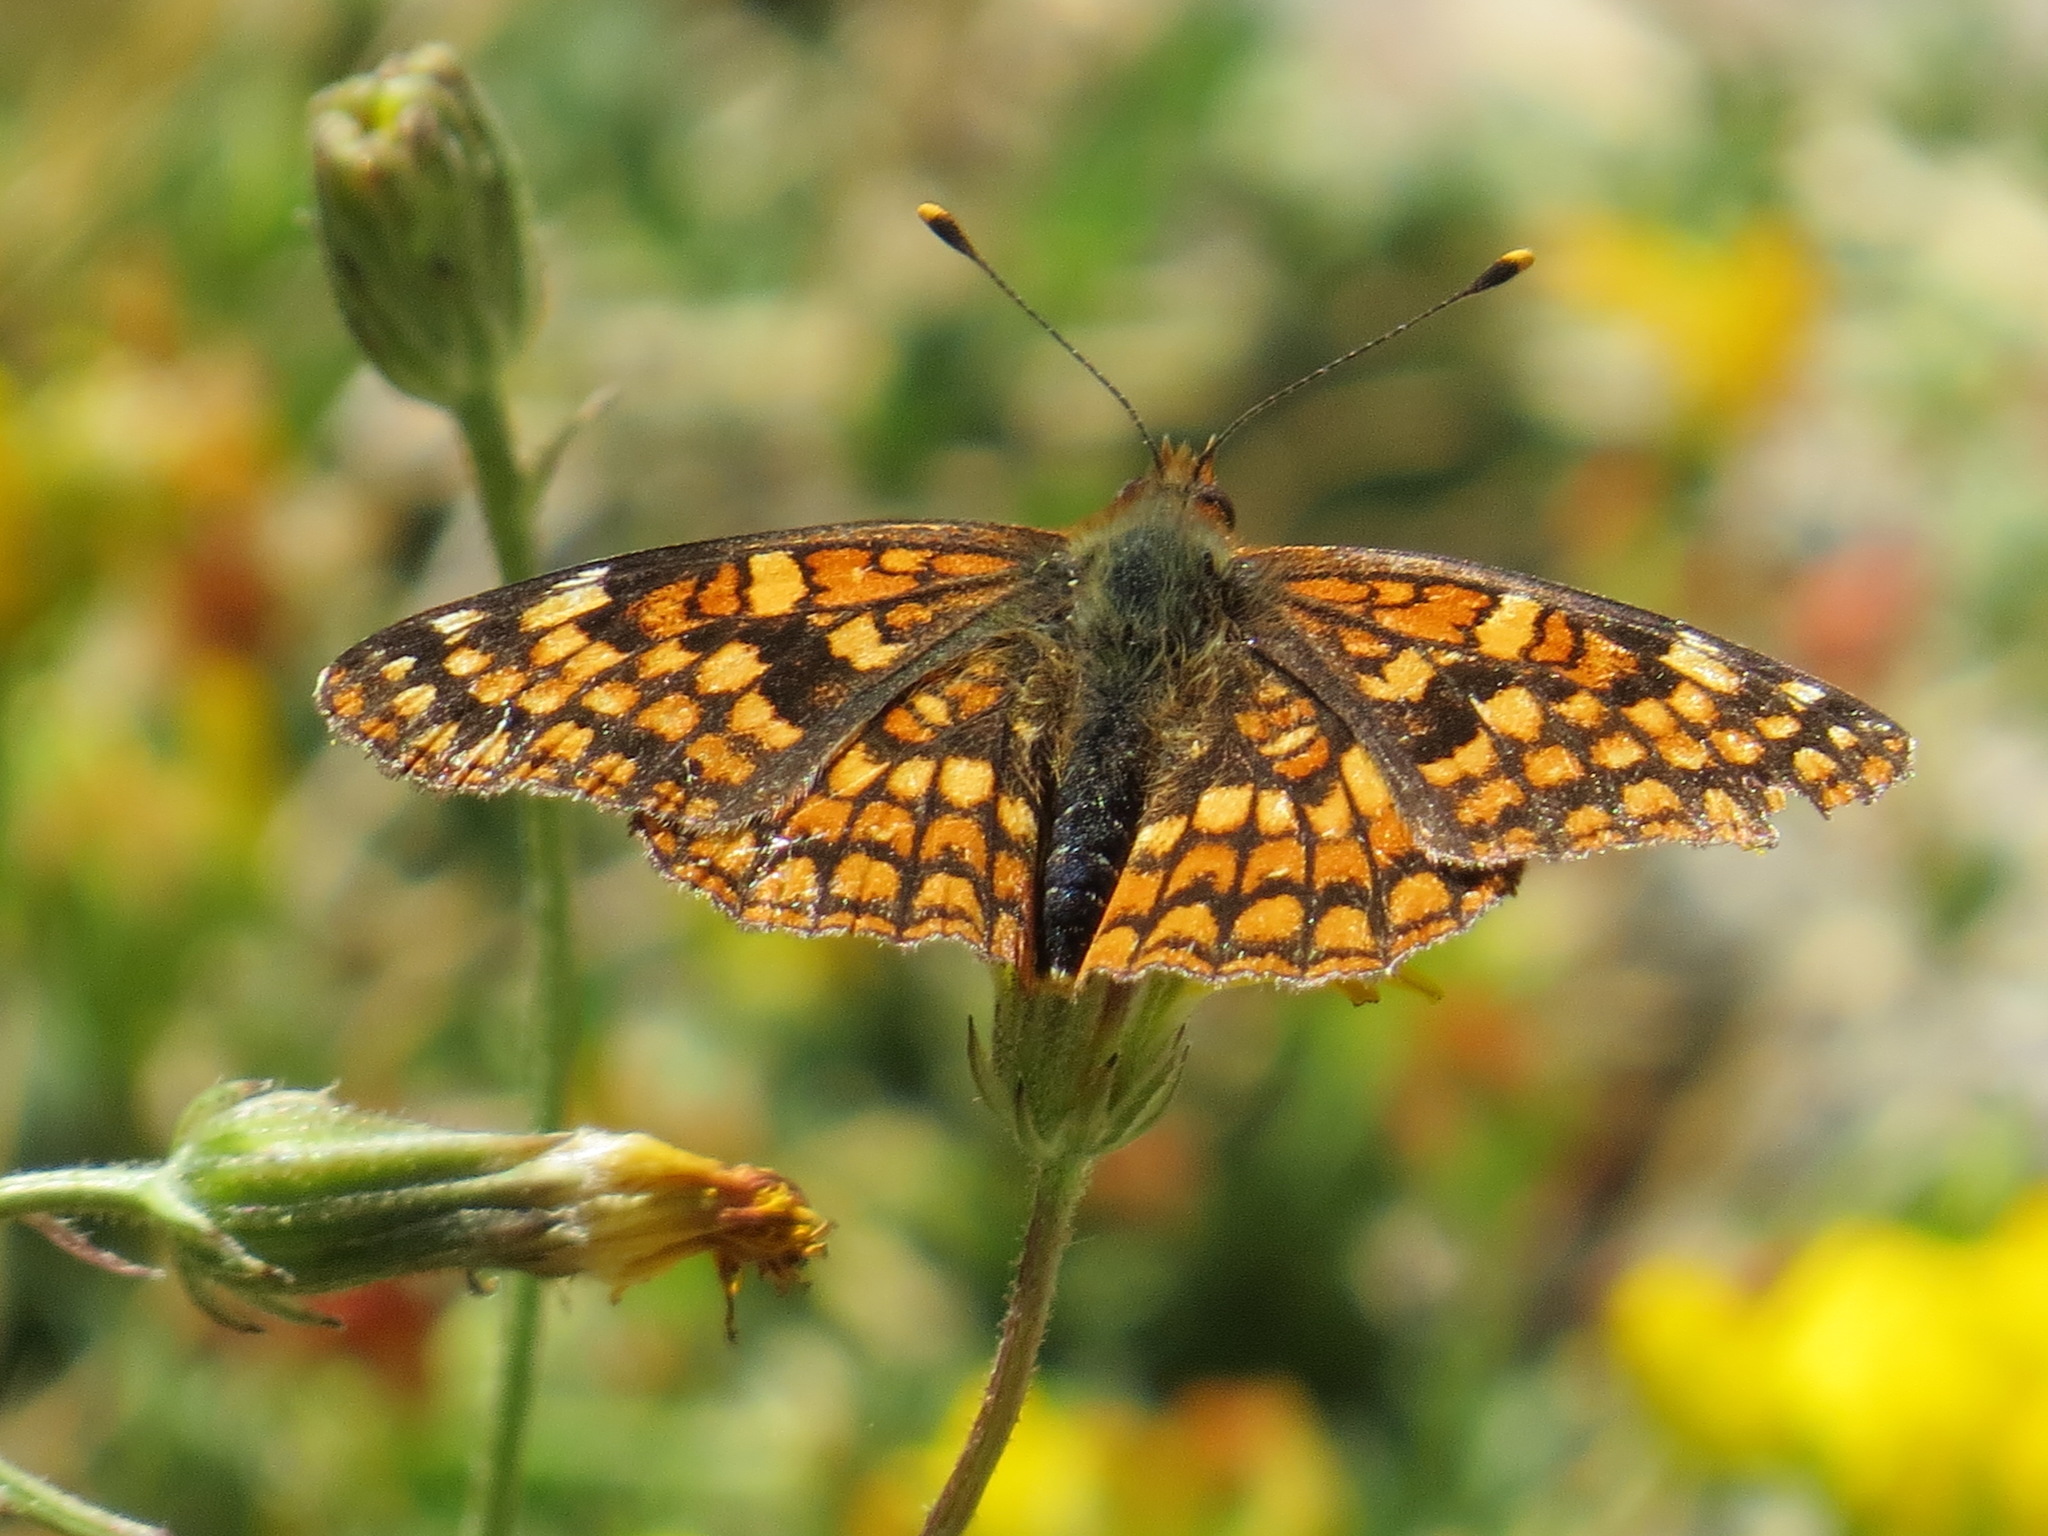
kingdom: Animalia
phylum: Arthropoda
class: Insecta
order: Lepidoptera
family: Nymphalidae
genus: Chlosyne
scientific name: Chlosyne palla
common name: Northern checkerspot
